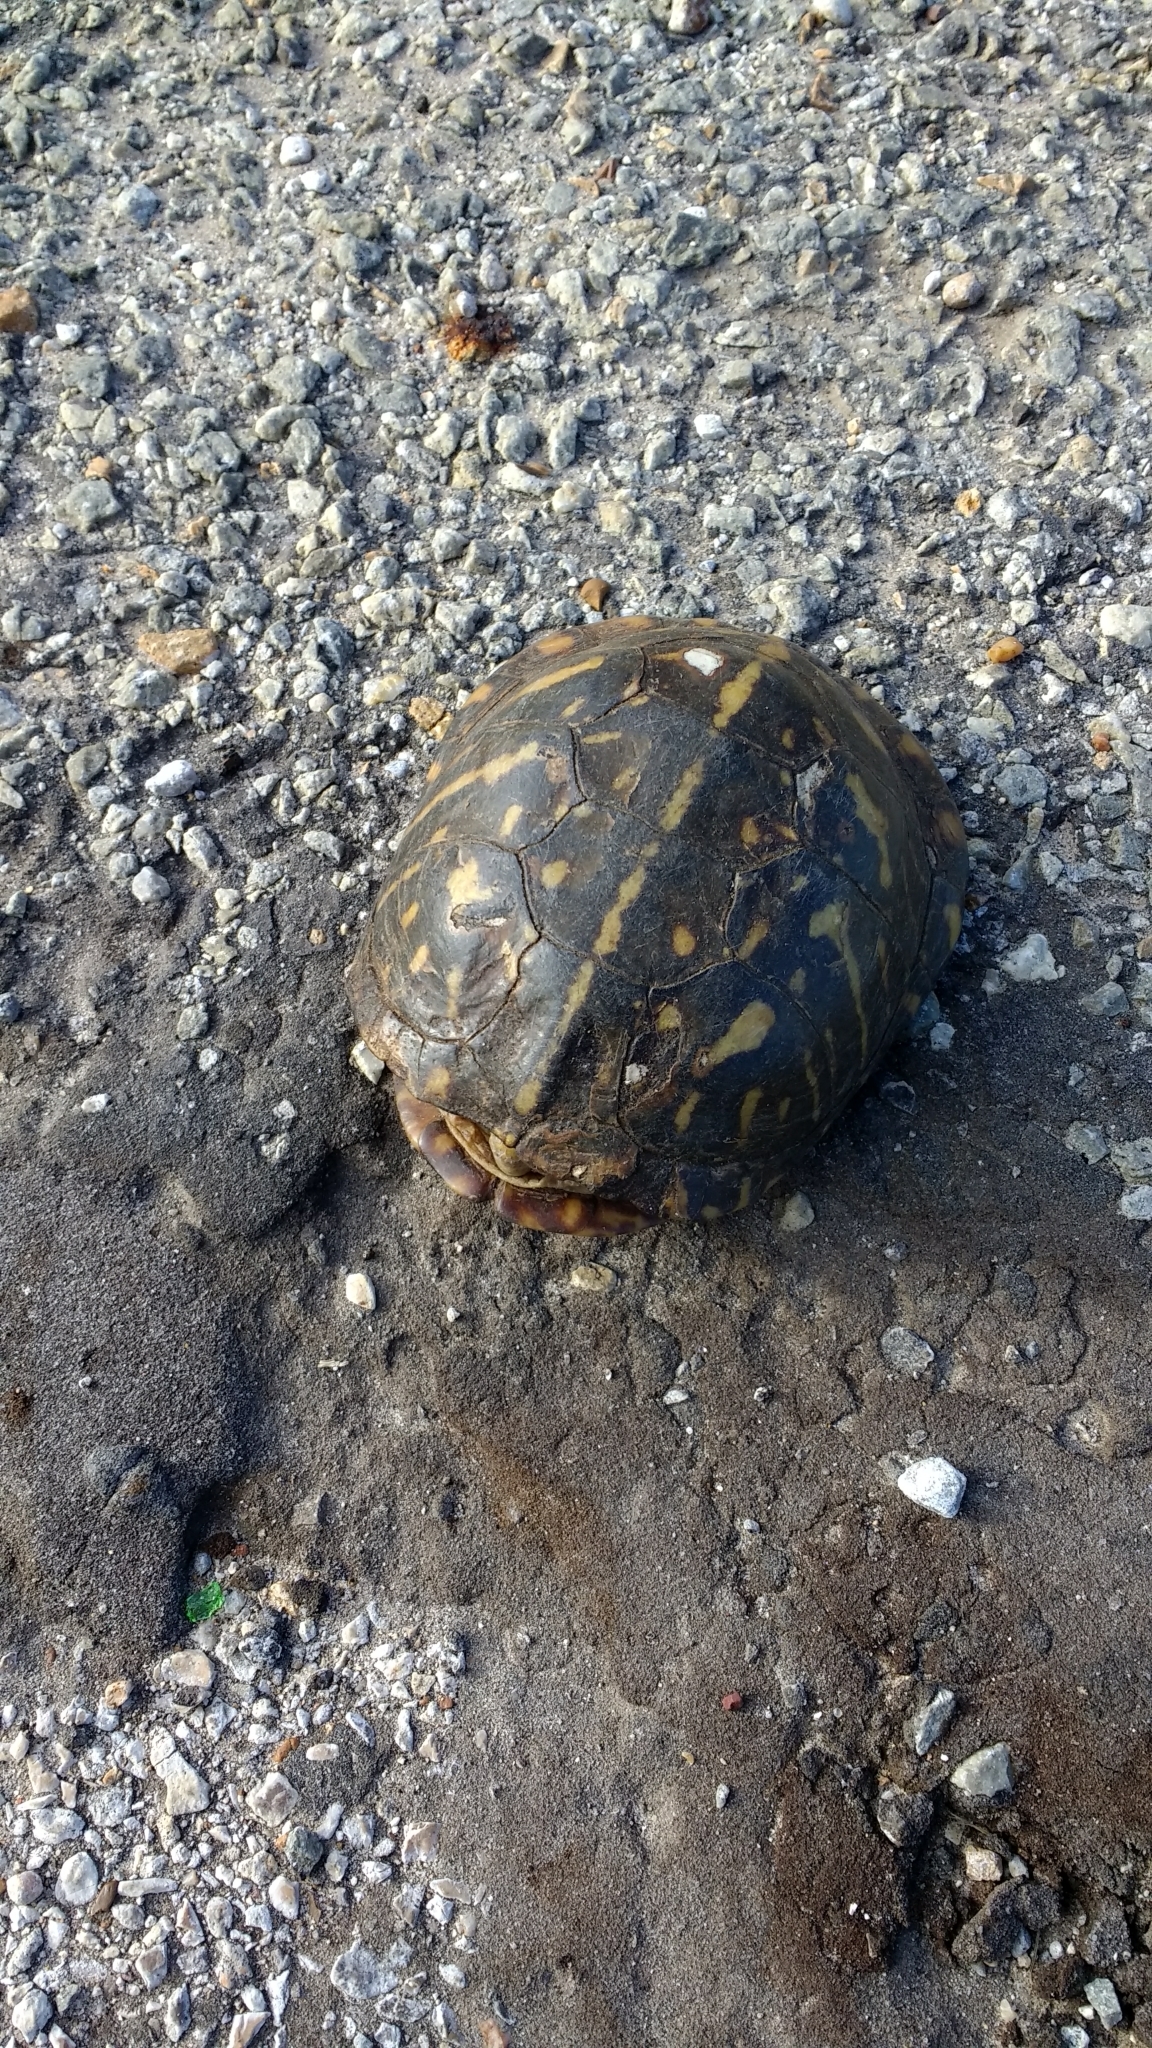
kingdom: Animalia
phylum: Chordata
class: Testudines
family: Emydidae
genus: Terrapene
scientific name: Terrapene ornata
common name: Western box turtle
